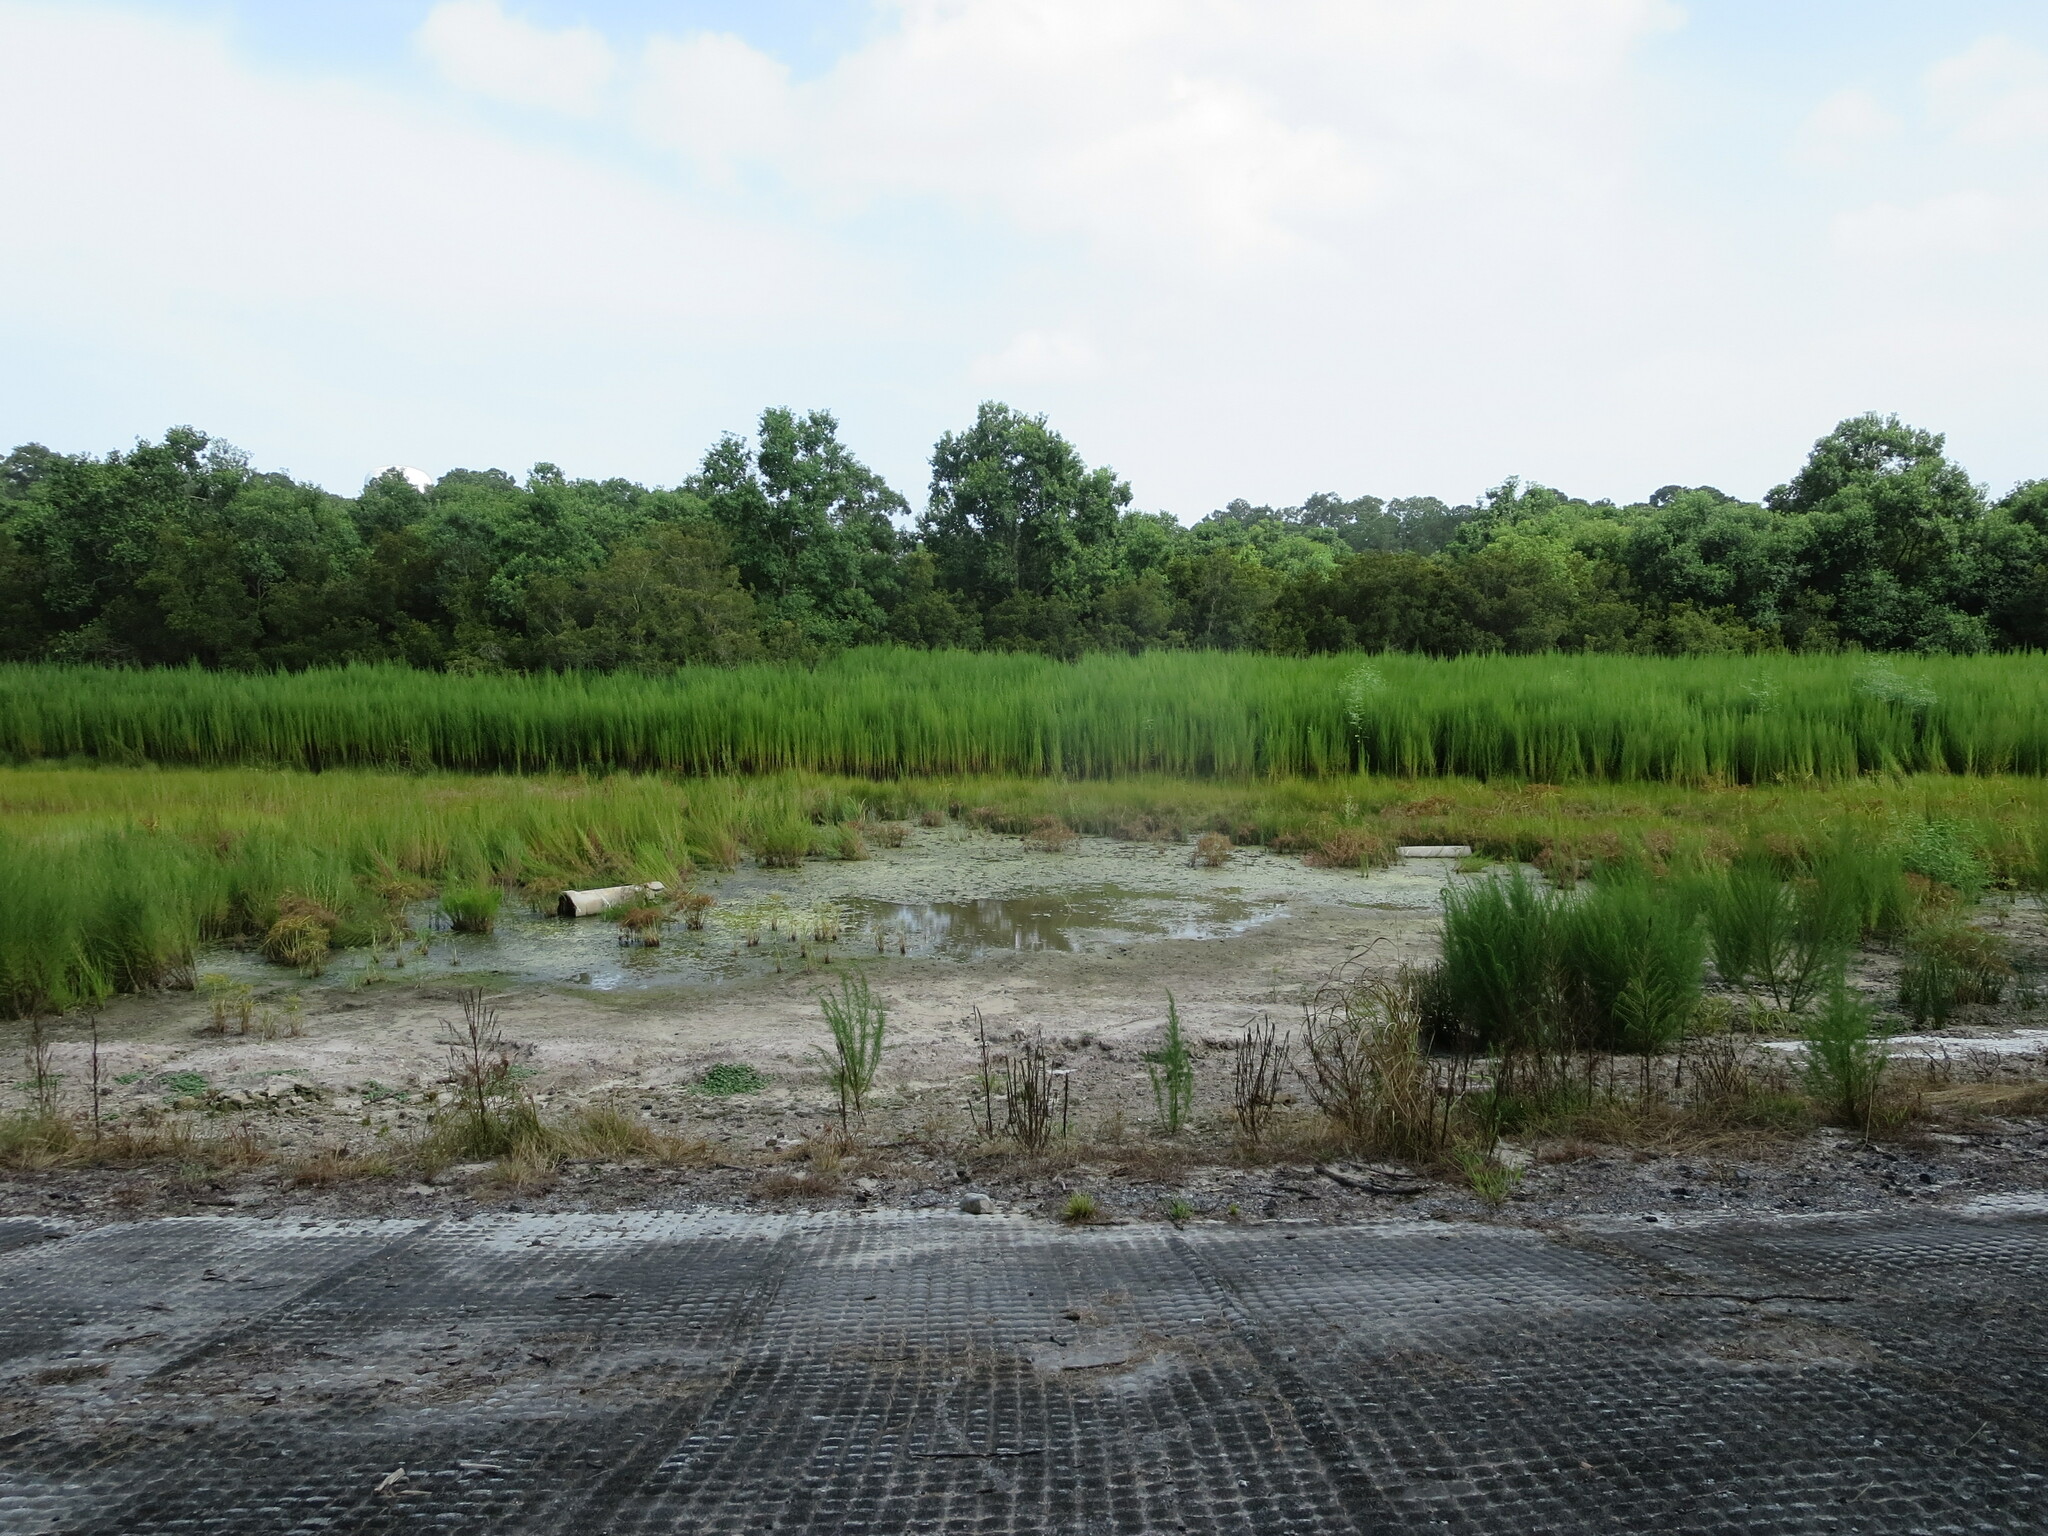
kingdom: Plantae
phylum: Tracheophyta
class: Magnoliopsida
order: Asterales
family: Asteraceae
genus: Eupatorium
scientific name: Eupatorium capillifolium
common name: Dog-fennel
